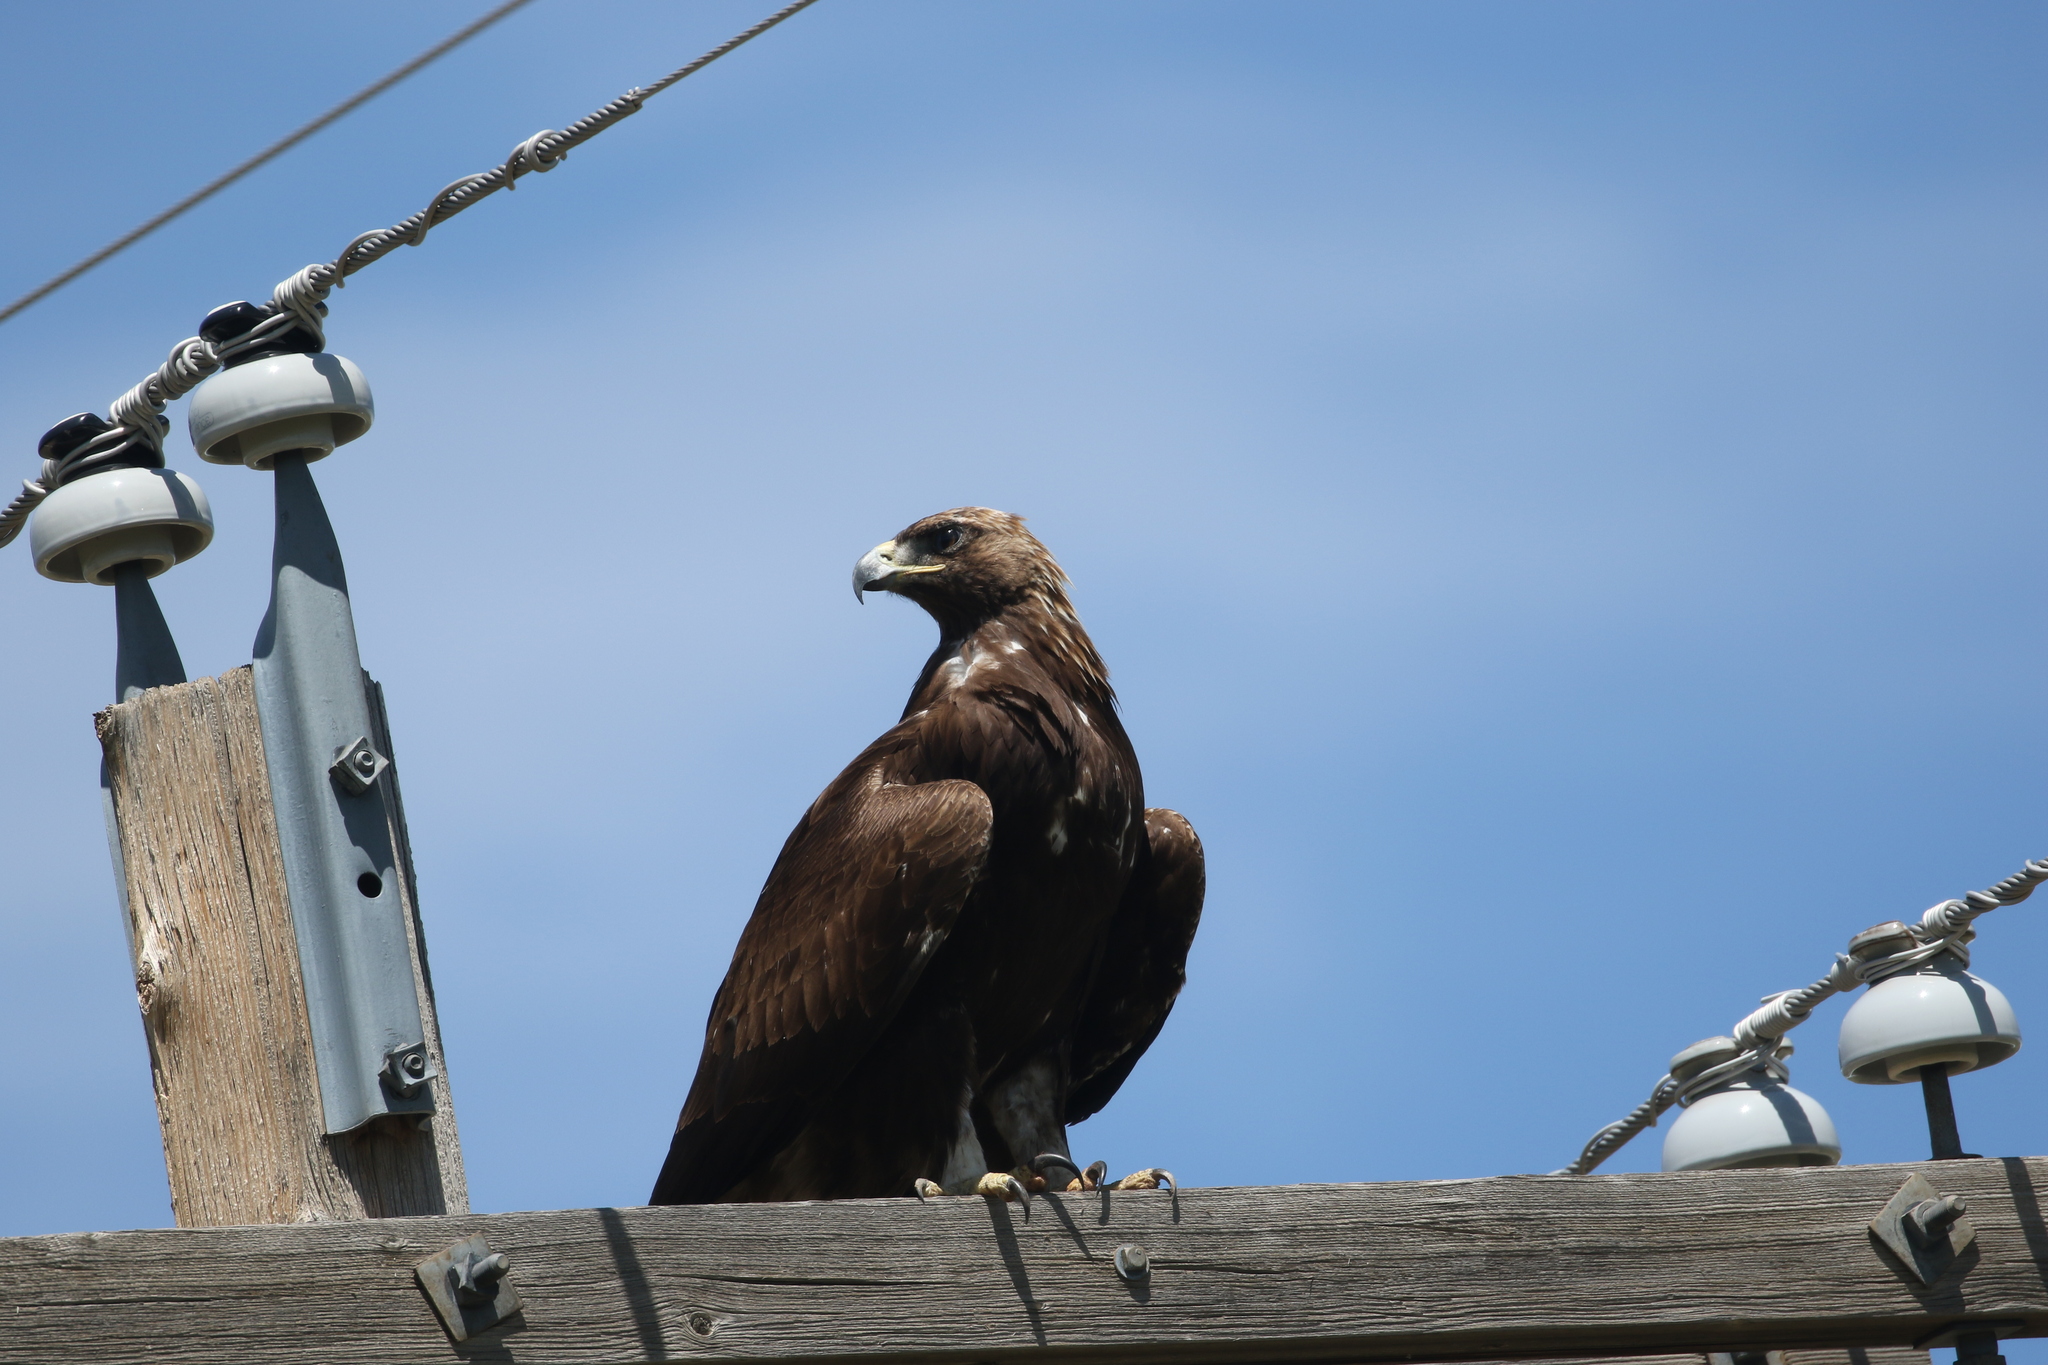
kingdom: Animalia
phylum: Chordata
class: Aves
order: Accipitriformes
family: Accipitridae
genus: Aquila
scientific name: Aquila chrysaetos
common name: Golden eagle
